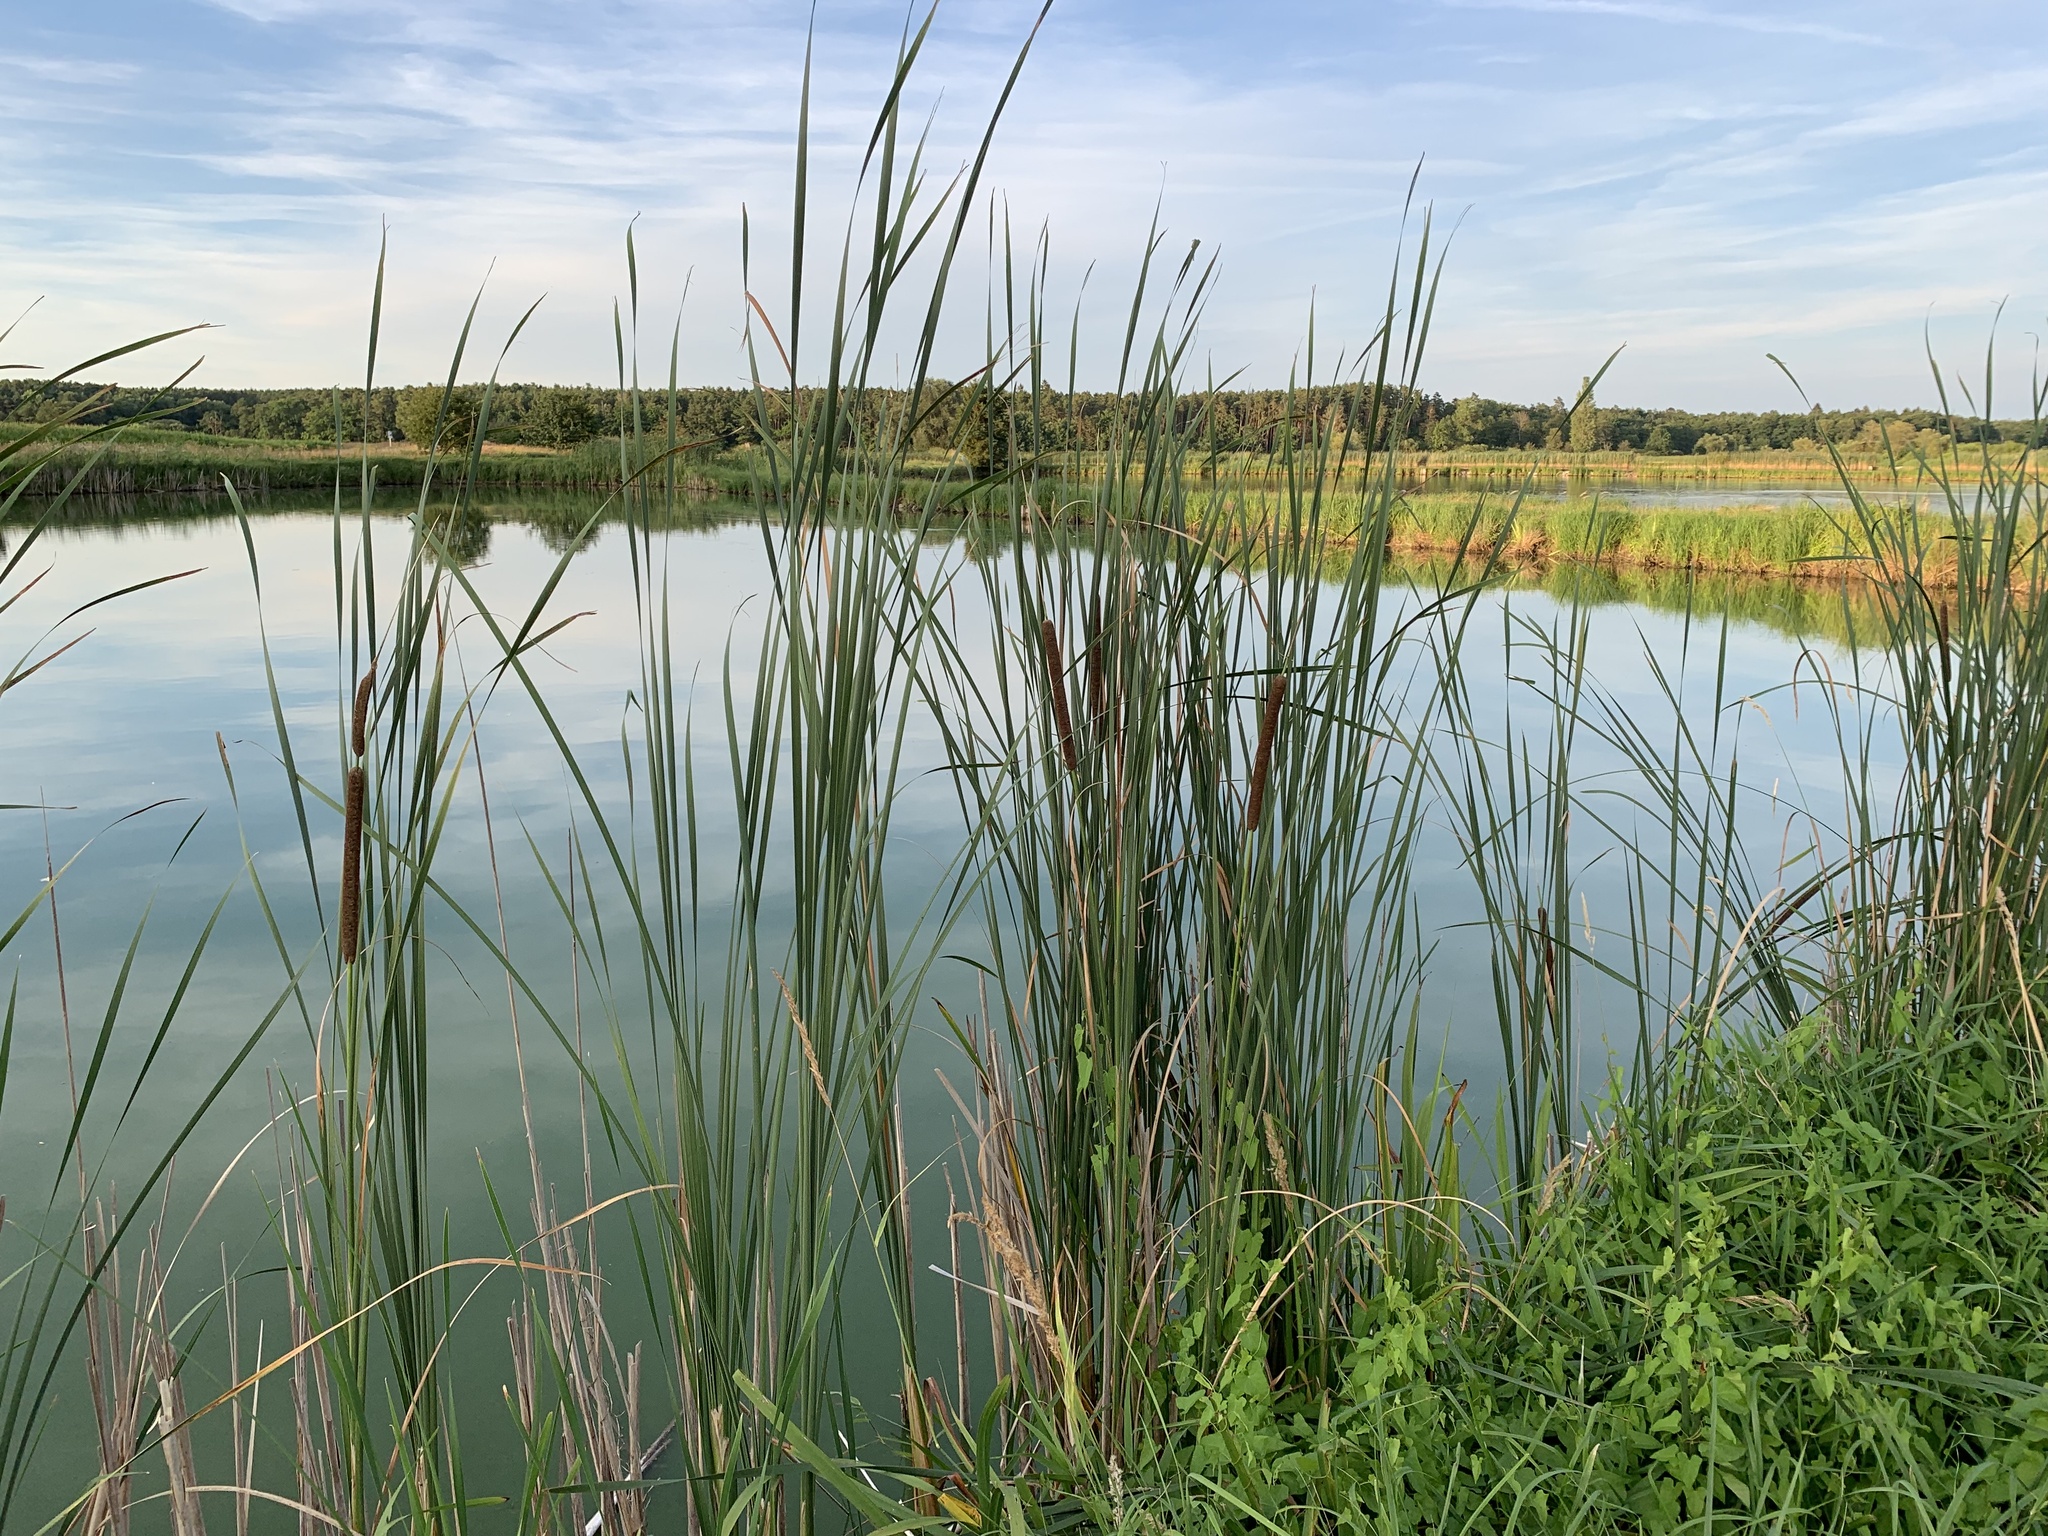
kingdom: Plantae
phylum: Tracheophyta
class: Liliopsida
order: Poales
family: Typhaceae
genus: Typha
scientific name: Typha angustifolia
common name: Lesser bulrush
